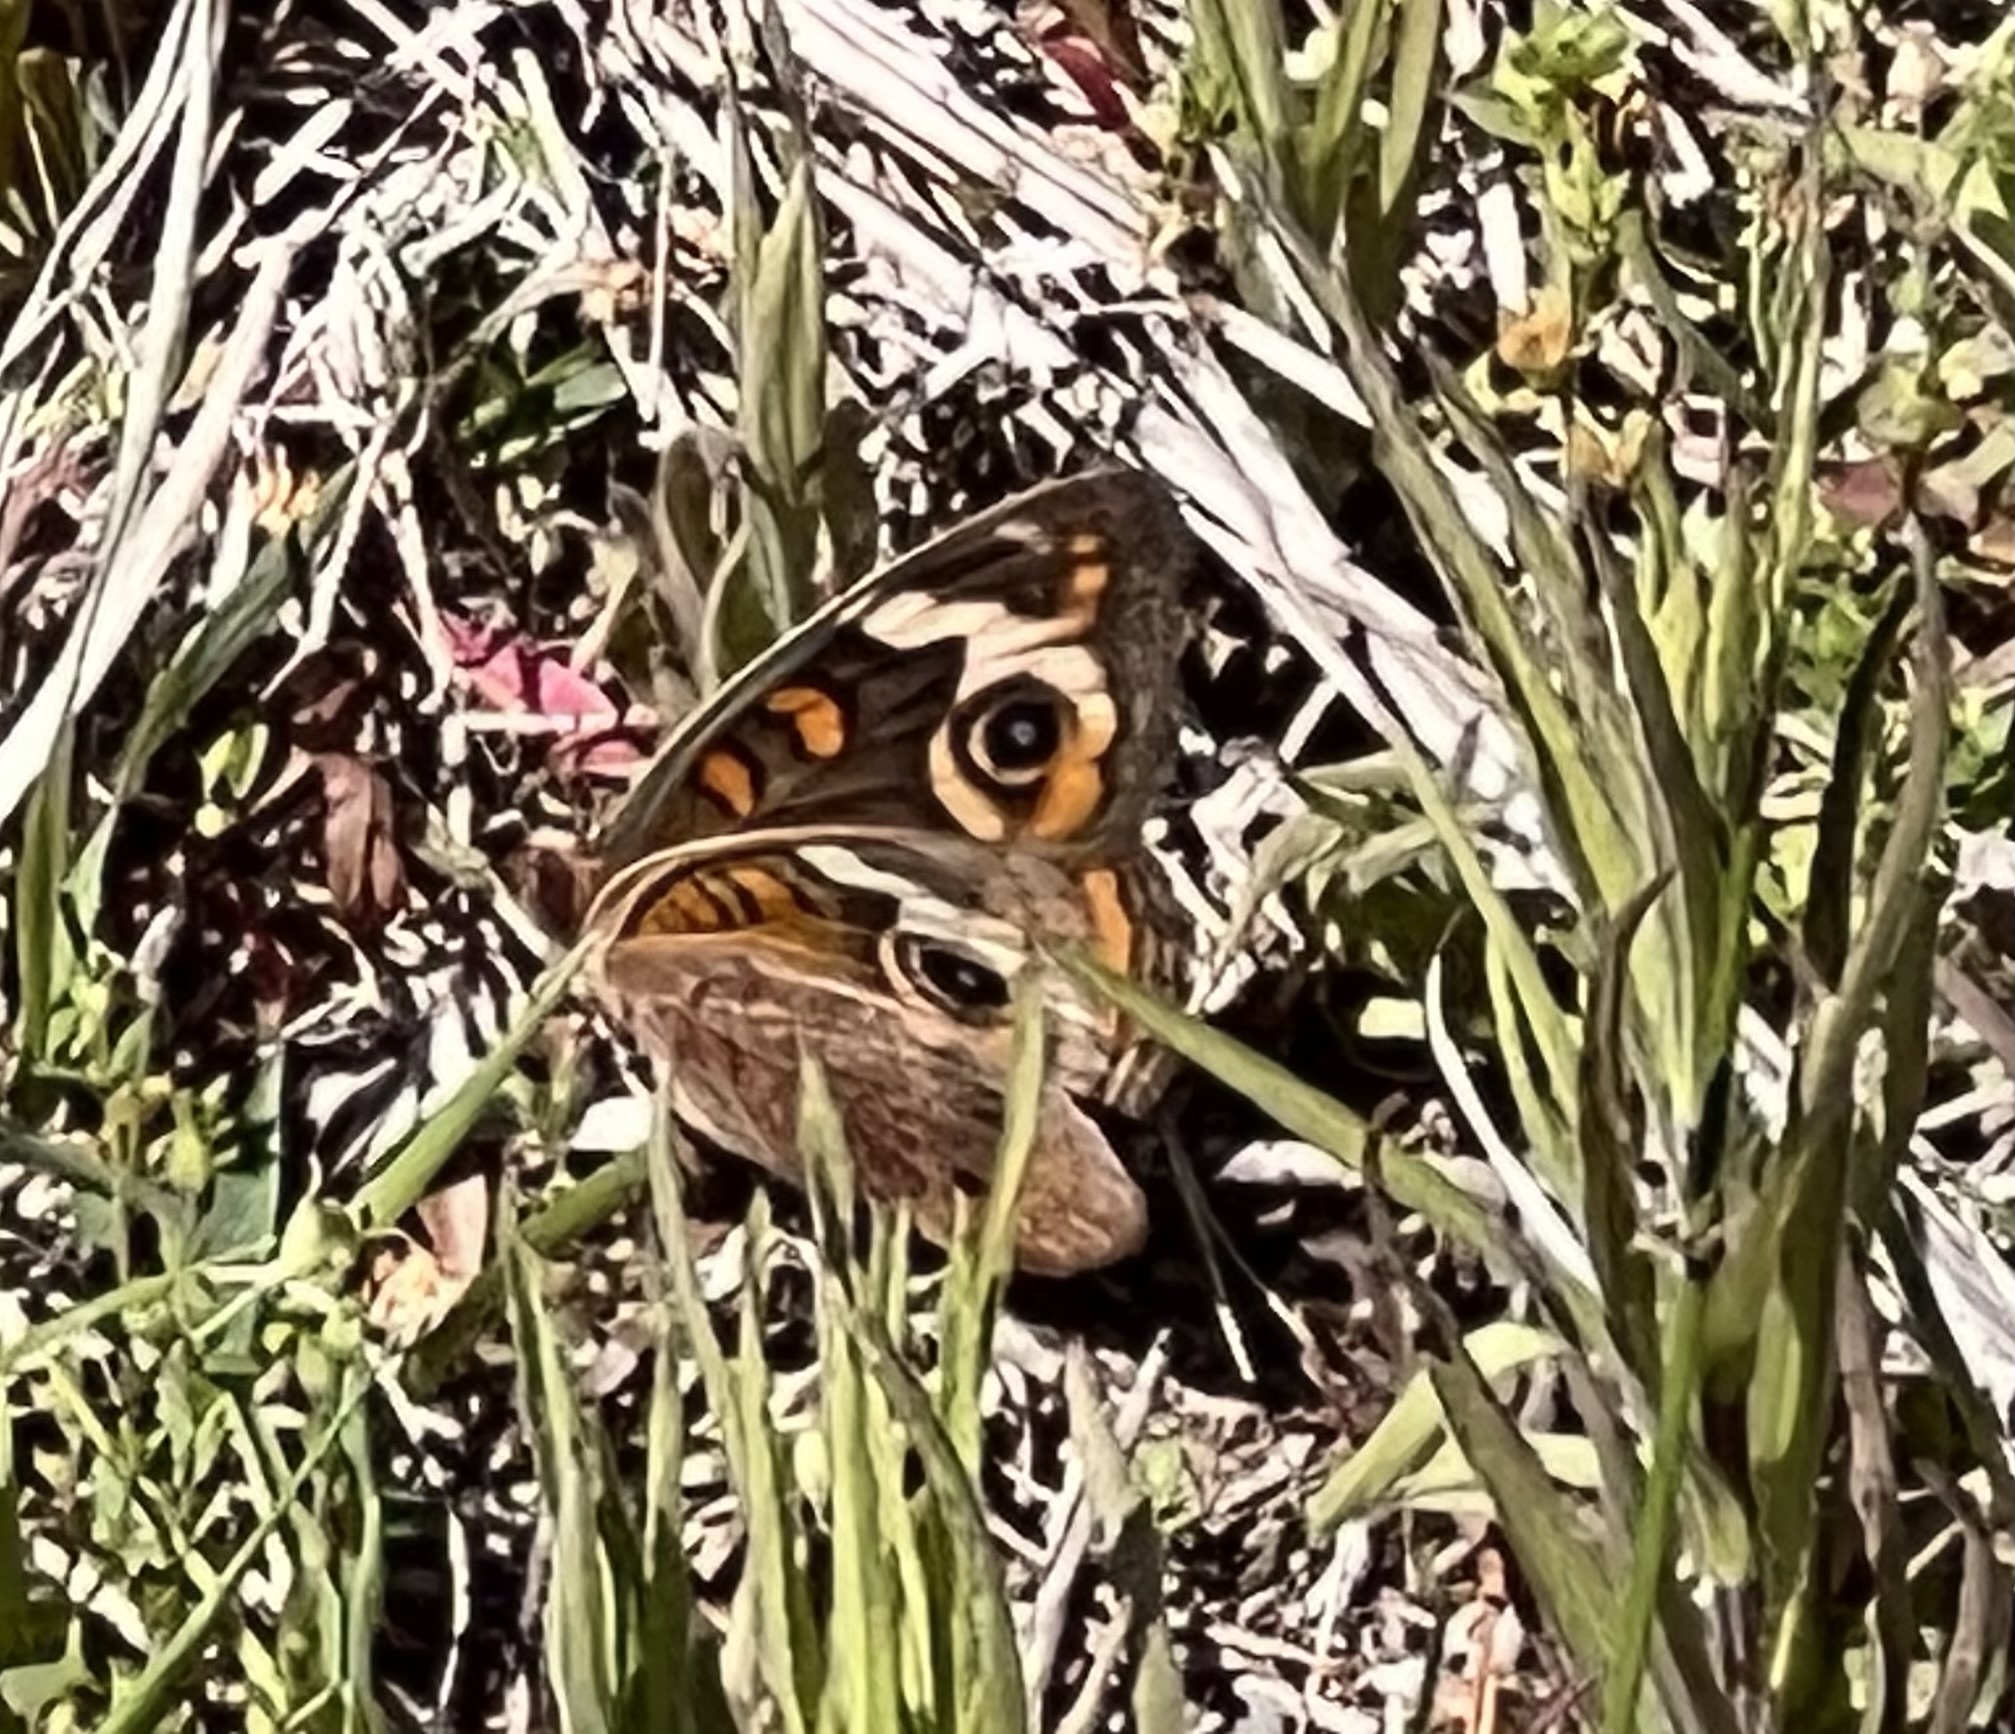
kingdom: Animalia
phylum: Arthropoda
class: Insecta
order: Lepidoptera
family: Nymphalidae
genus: Junonia
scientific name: Junonia coenia
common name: Common buckeye
